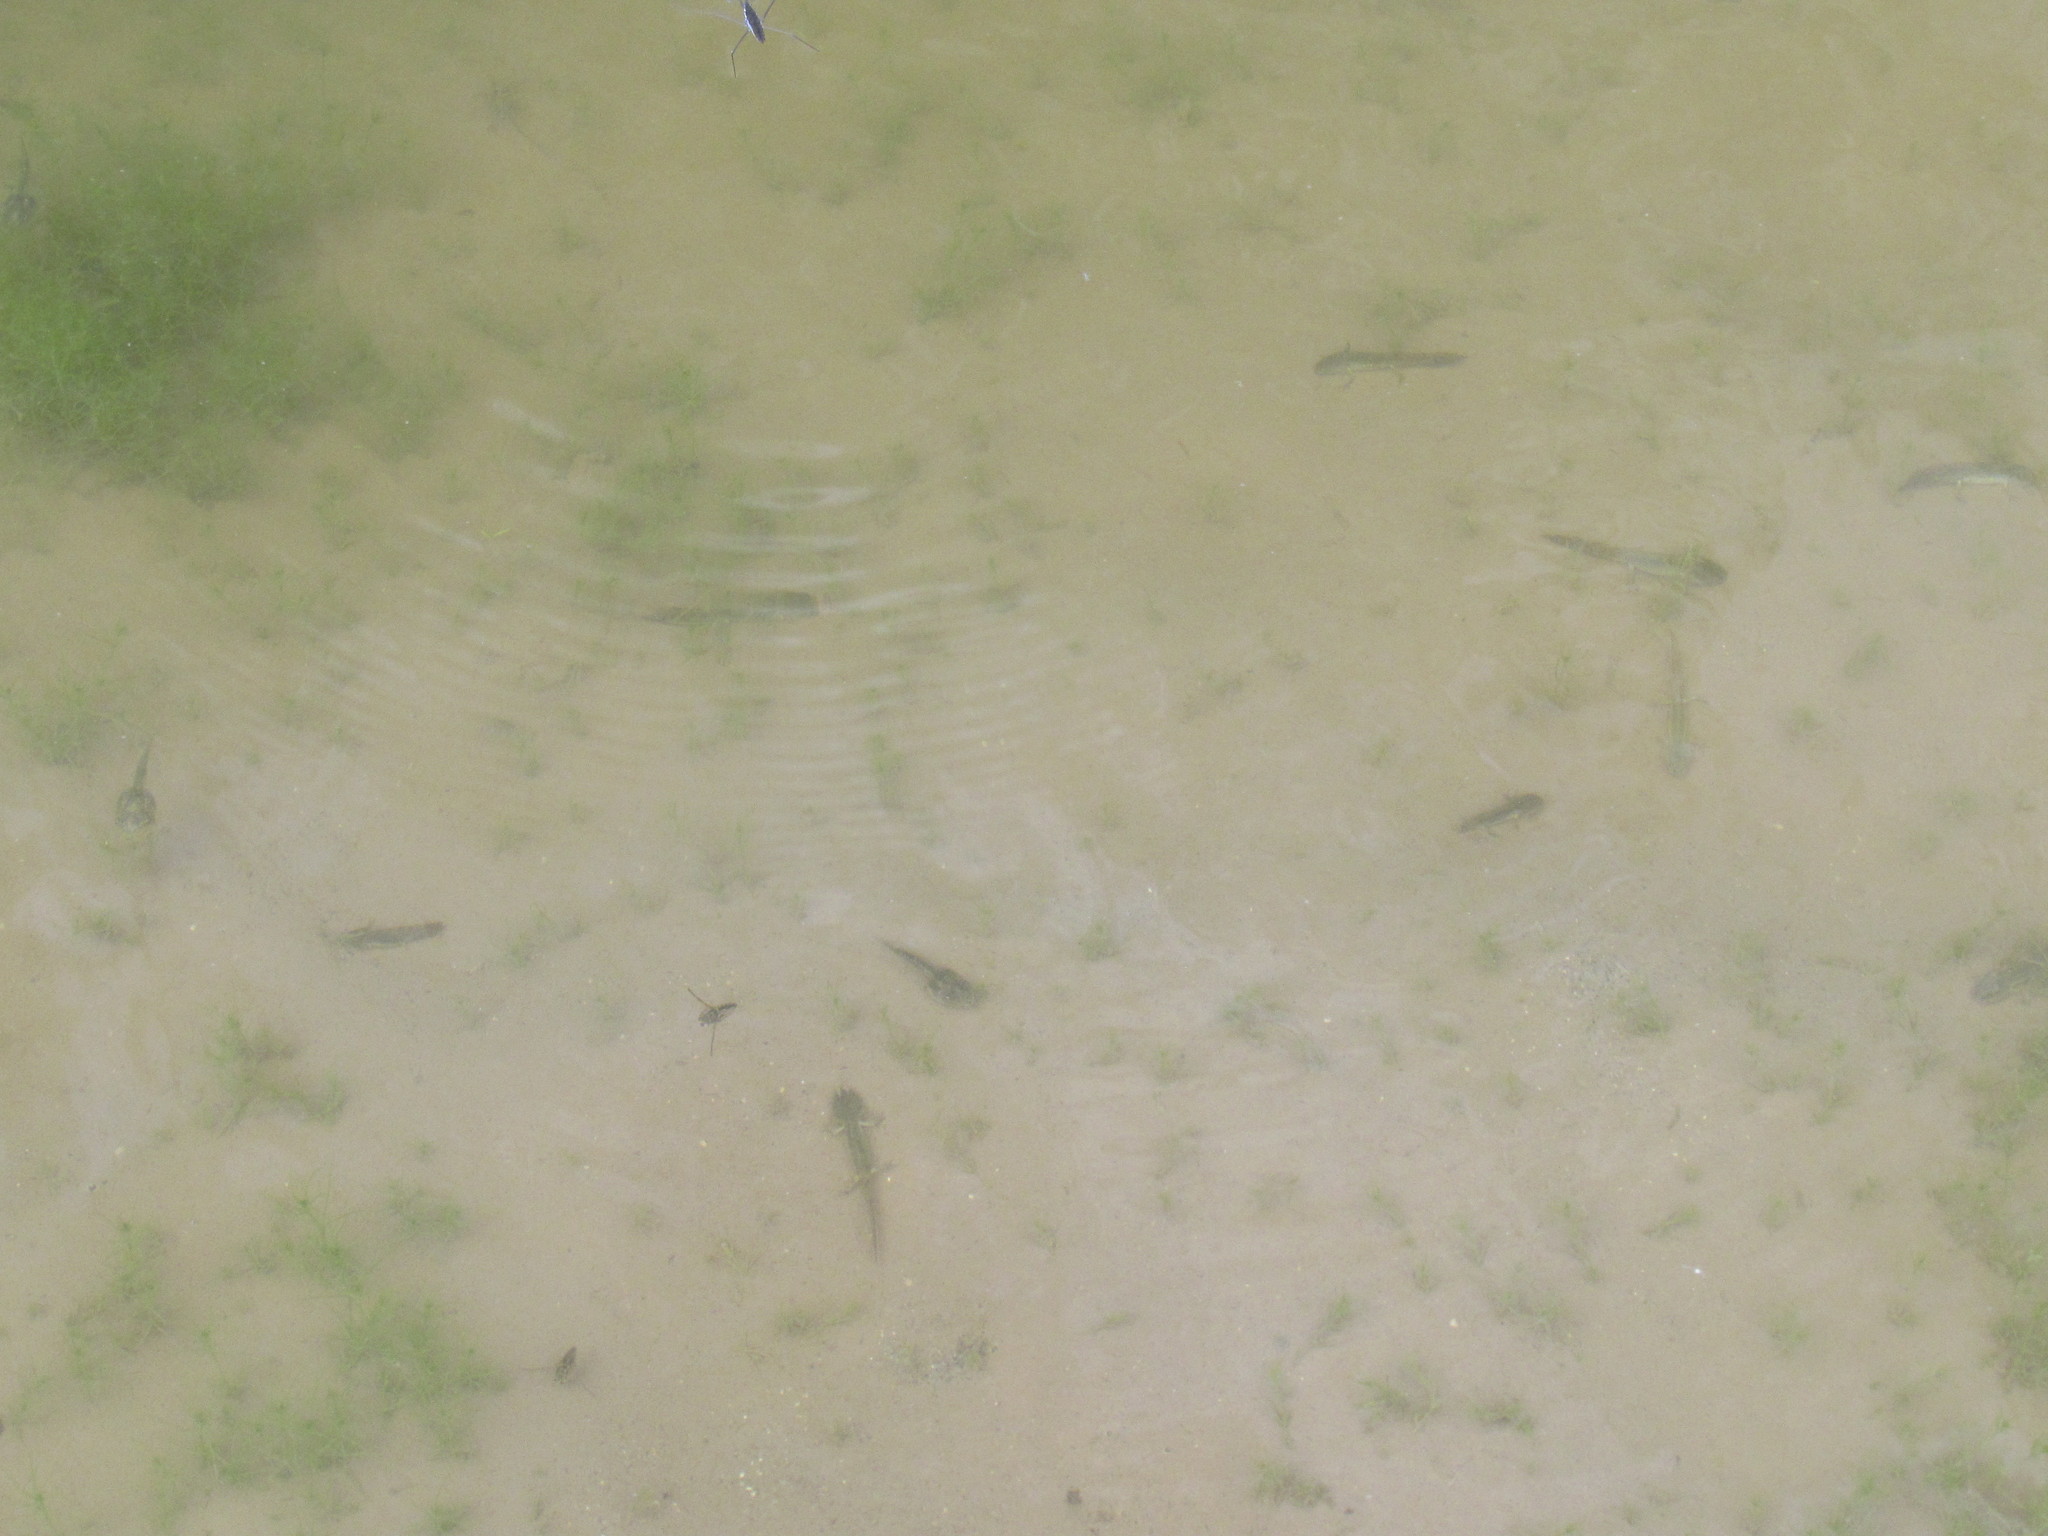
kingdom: Animalia
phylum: Chordata
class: Amphibia
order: Anura
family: Hylidae
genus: Pseudacris
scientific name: Pseudacris regilla
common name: Pacific chorus frog
